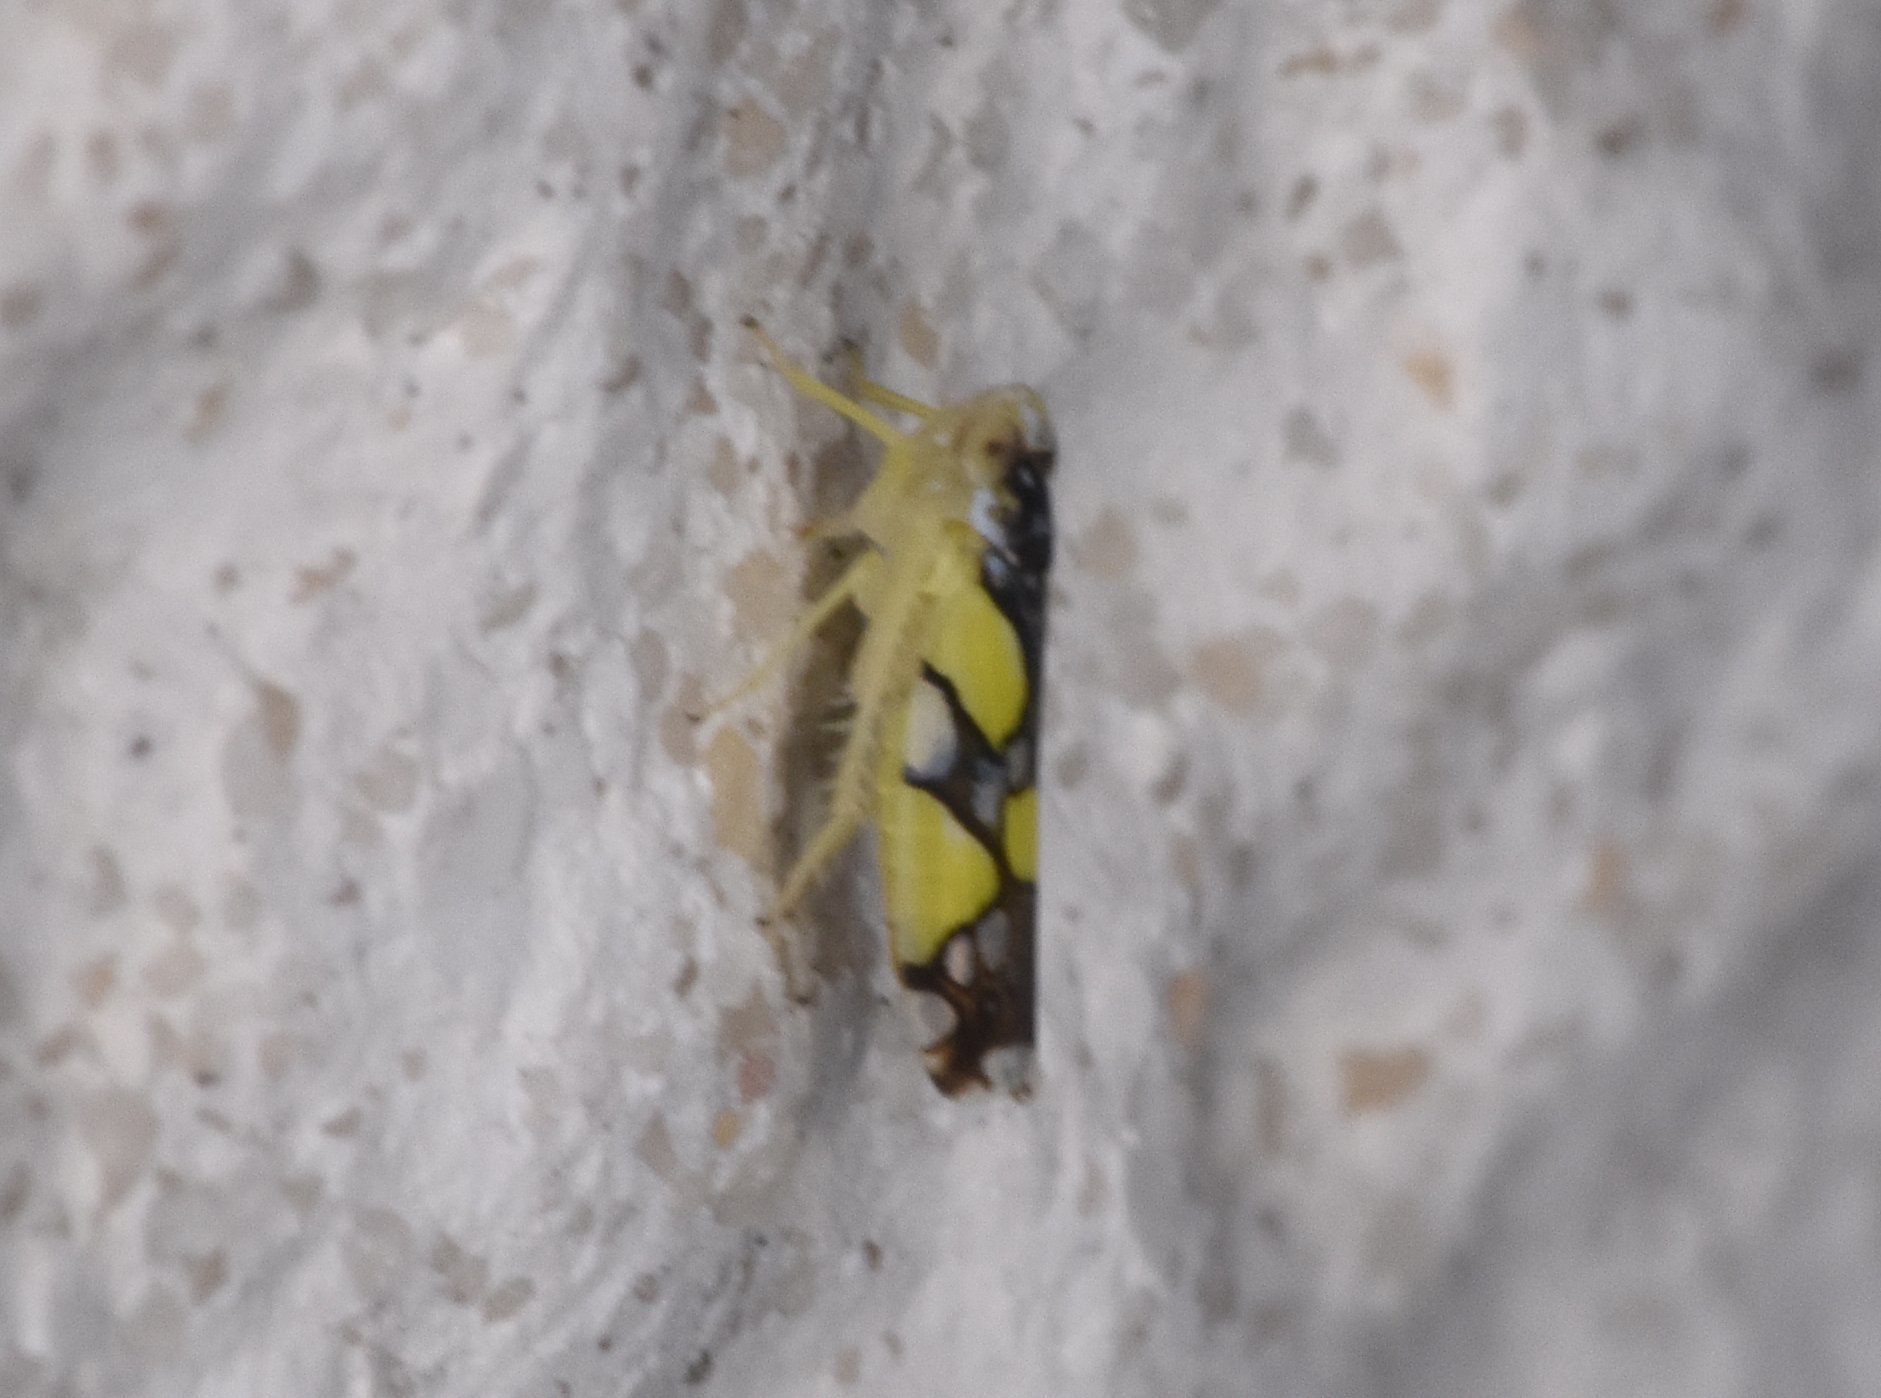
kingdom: Animalia
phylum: Arthropoda
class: Insecta
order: Hemiptera
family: Cicadellidae
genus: Protalebrella
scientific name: Protalebrella brasiliensis
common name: Brasilian leafhopper
